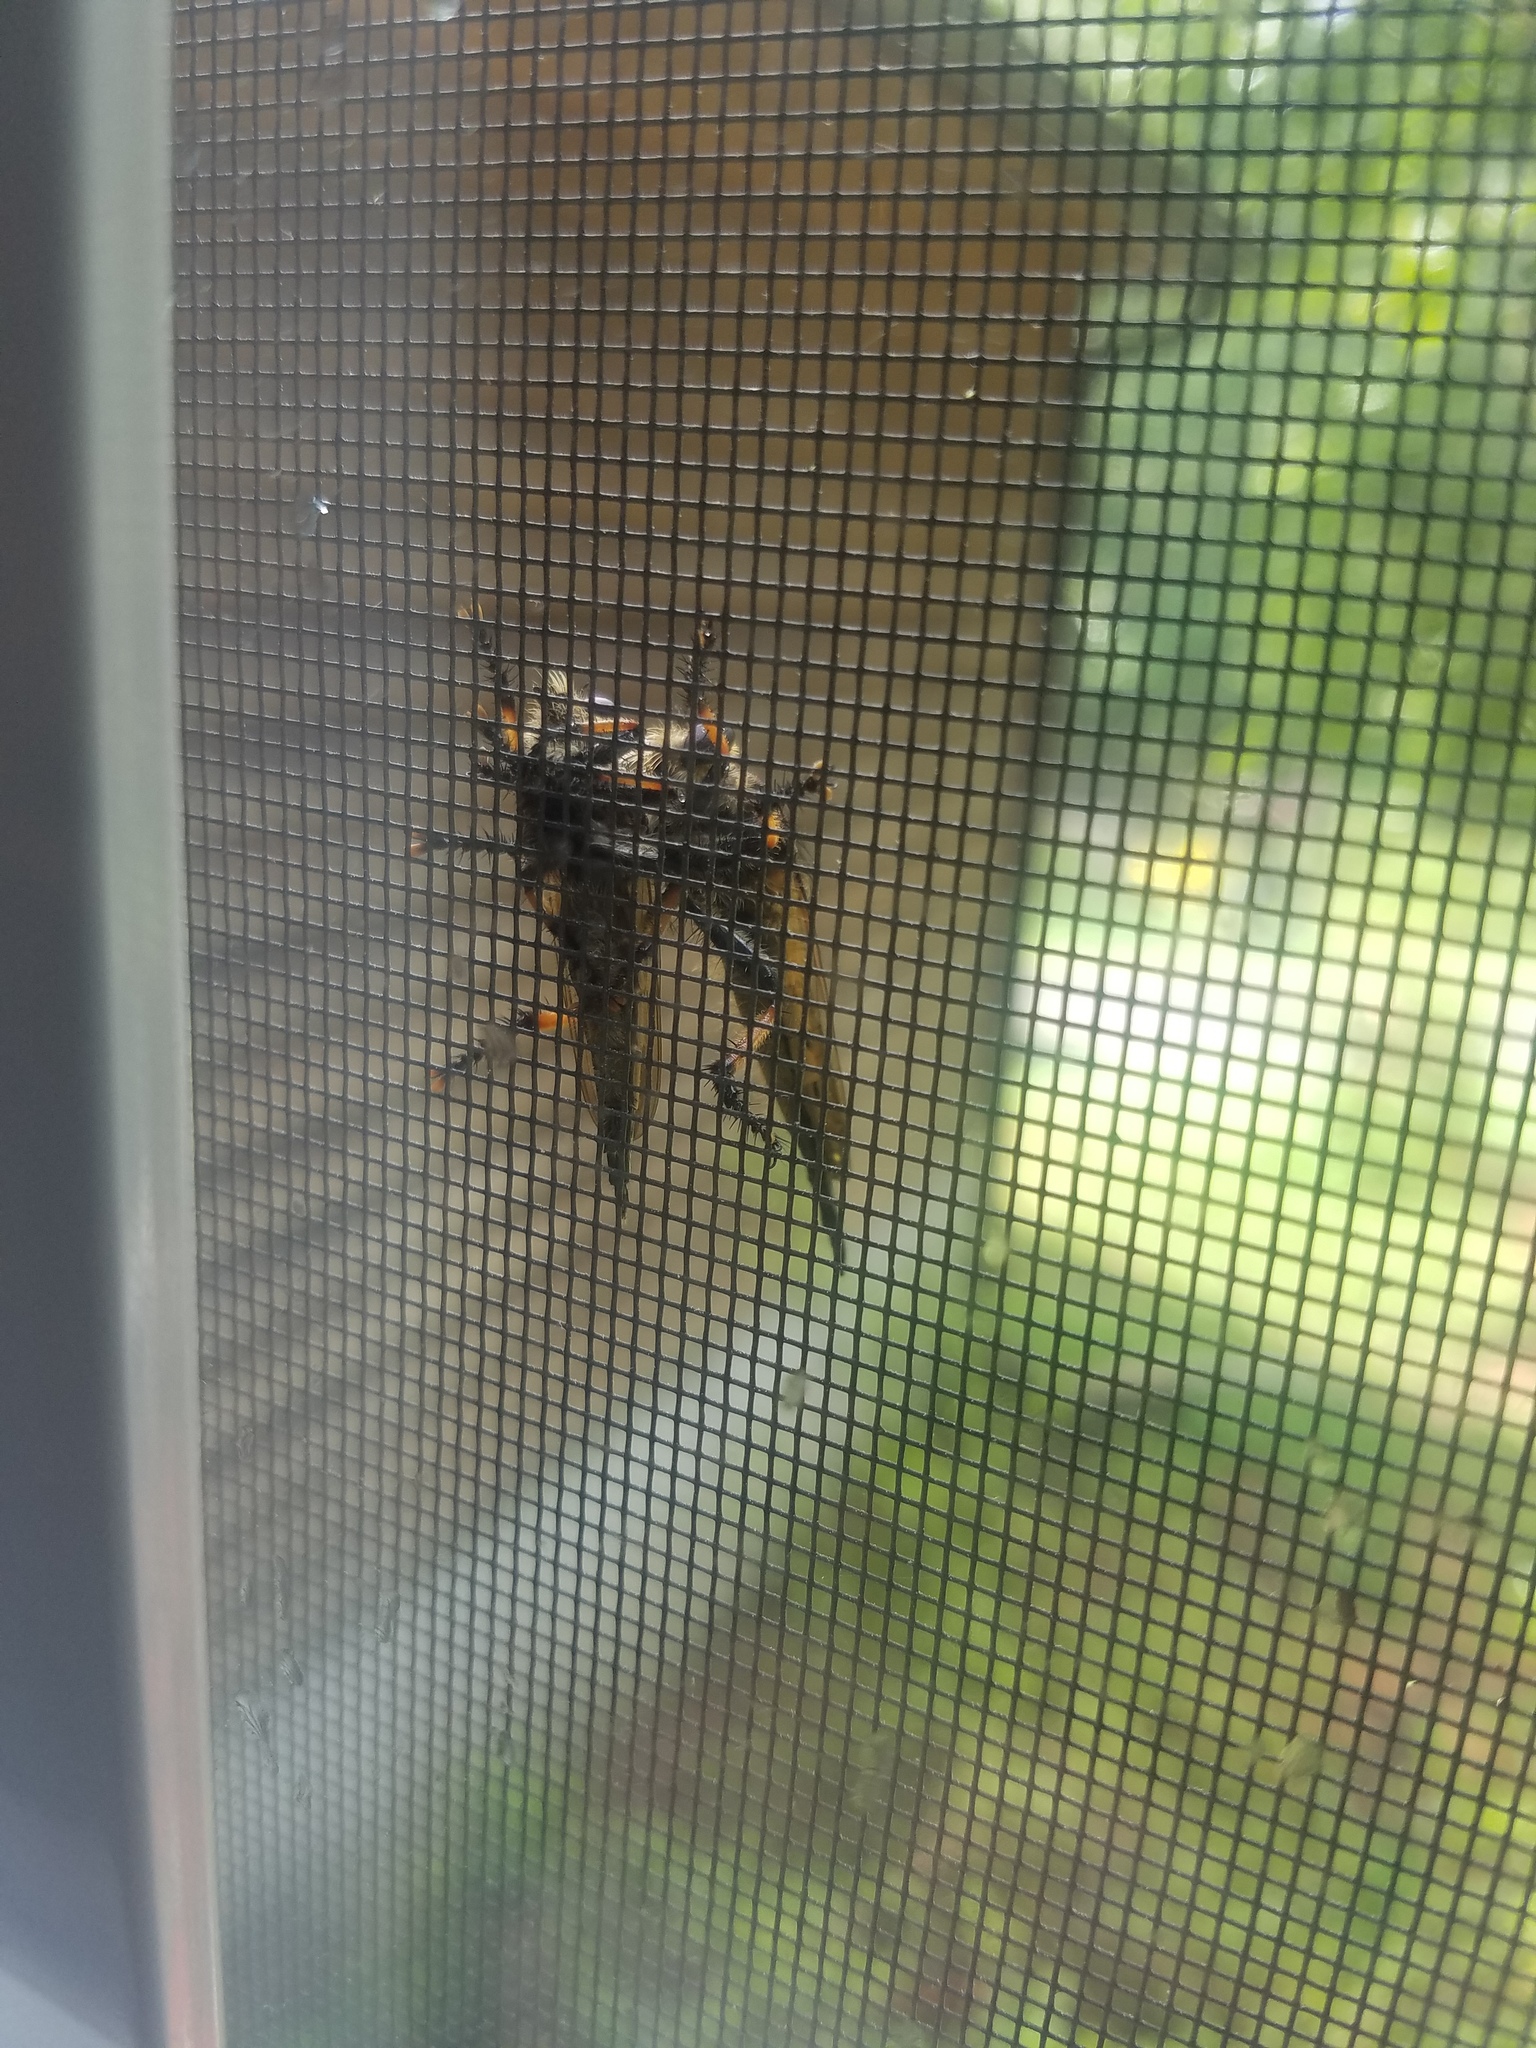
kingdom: Animalia
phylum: Arthropoda
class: Insecta
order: Diptera
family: Asilidae
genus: Promachus
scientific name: Promachus rufipes
